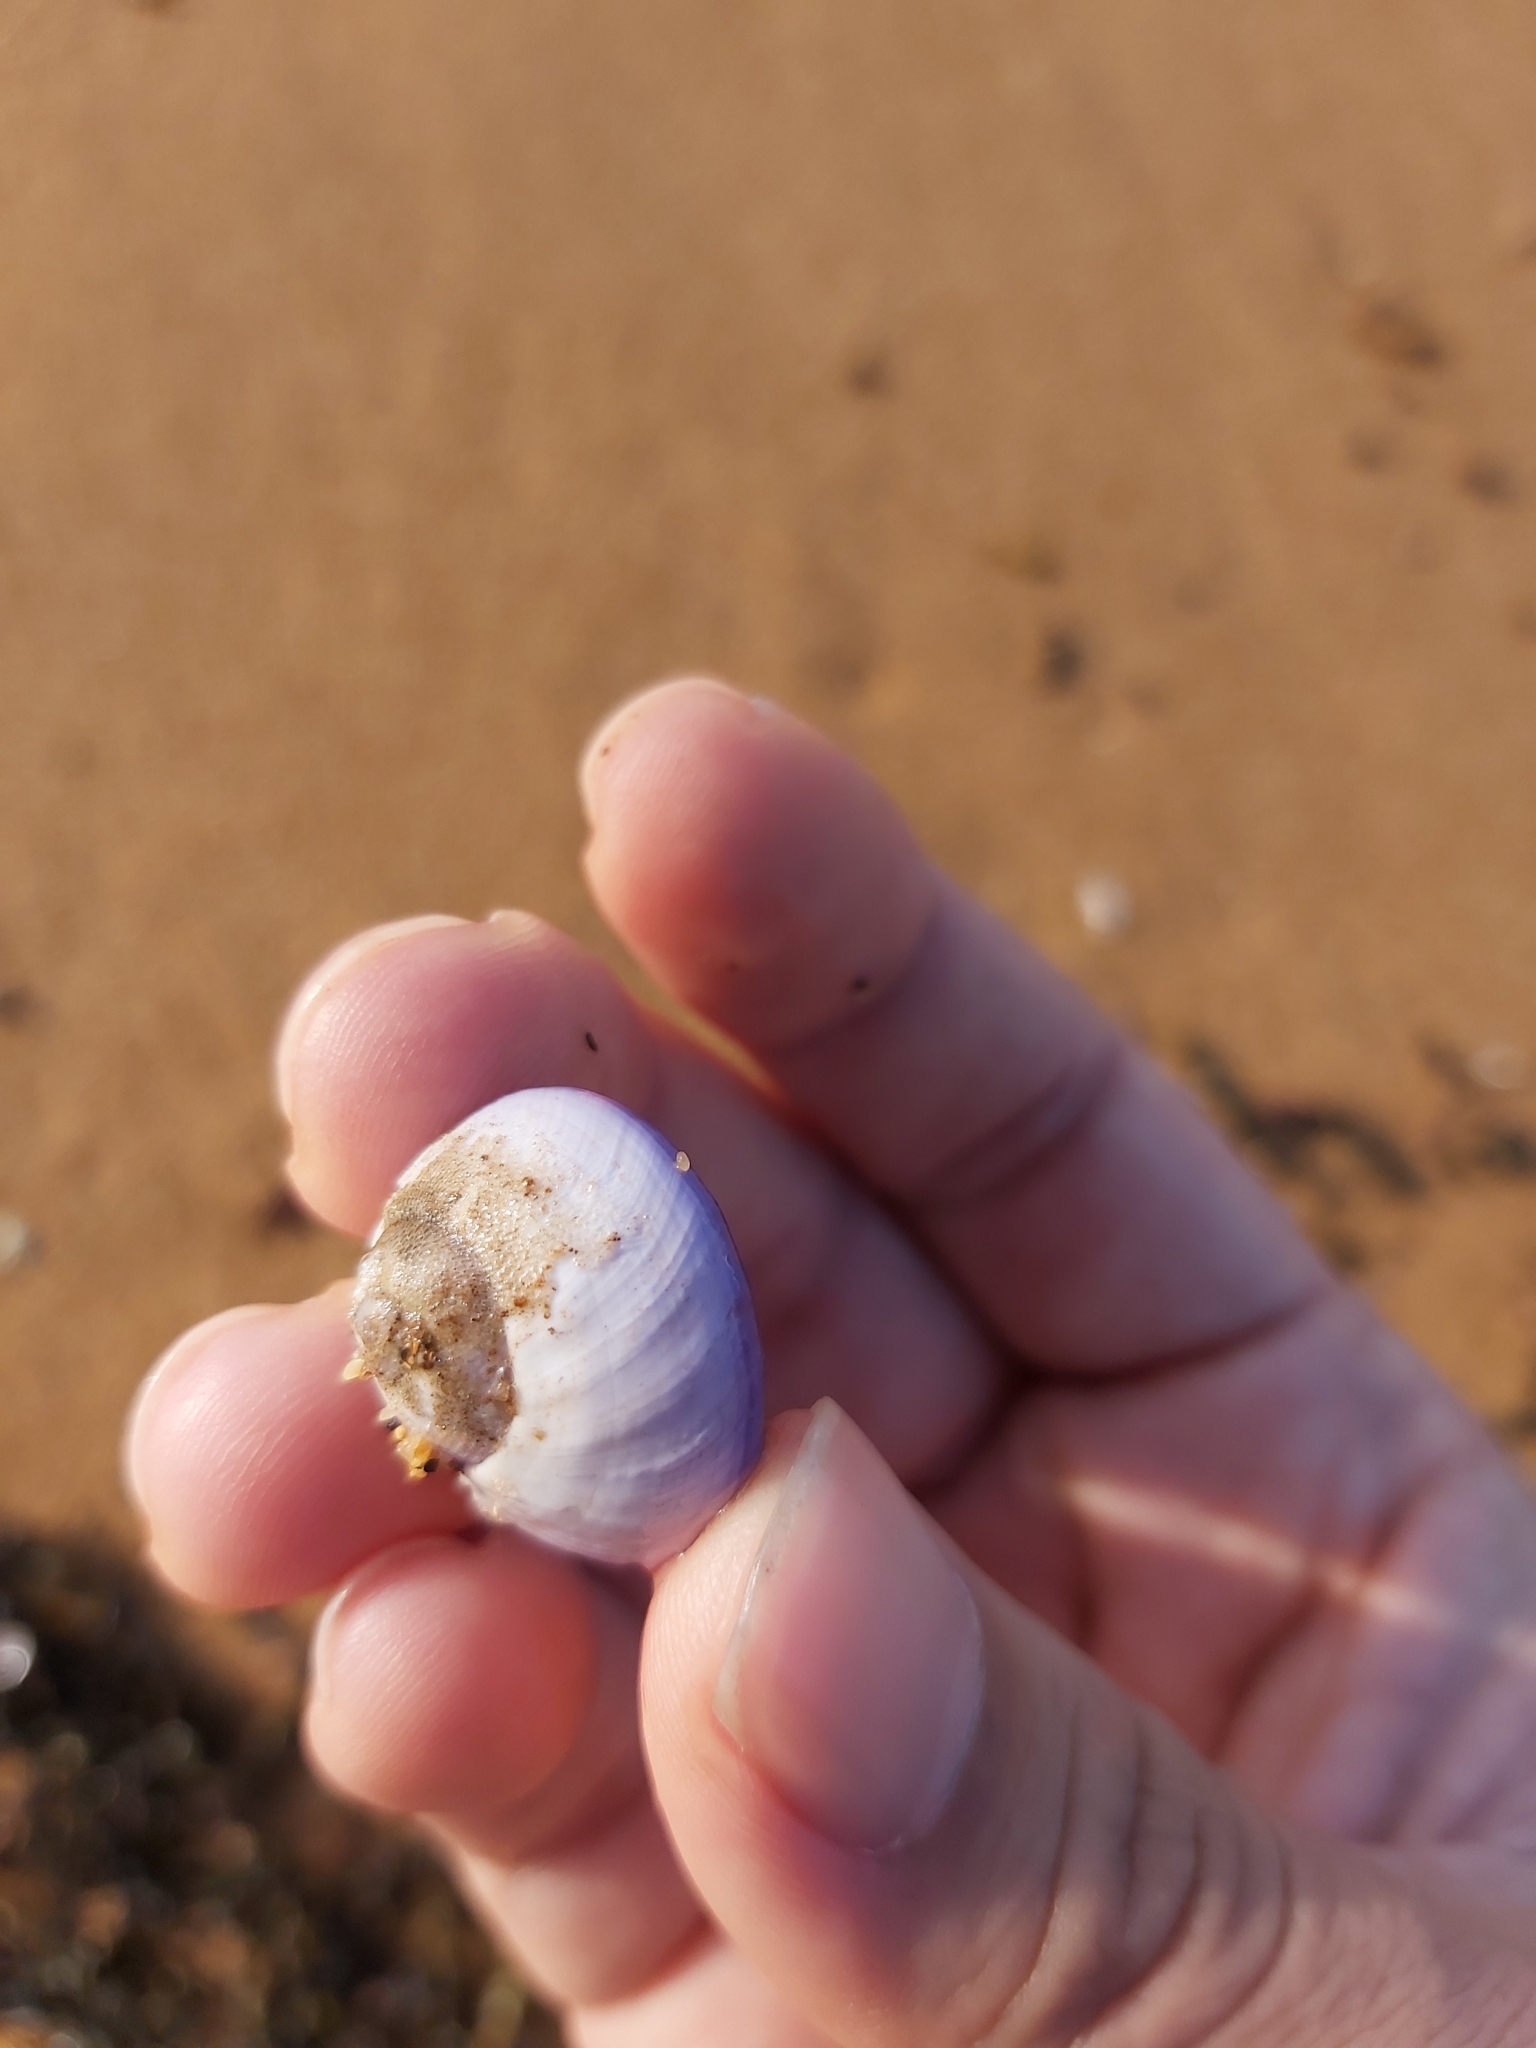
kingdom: Animalia
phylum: Mollusca
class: Gastropoda
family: Epitoniidae
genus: Janthina
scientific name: Janthina janthina
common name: Common janthina
